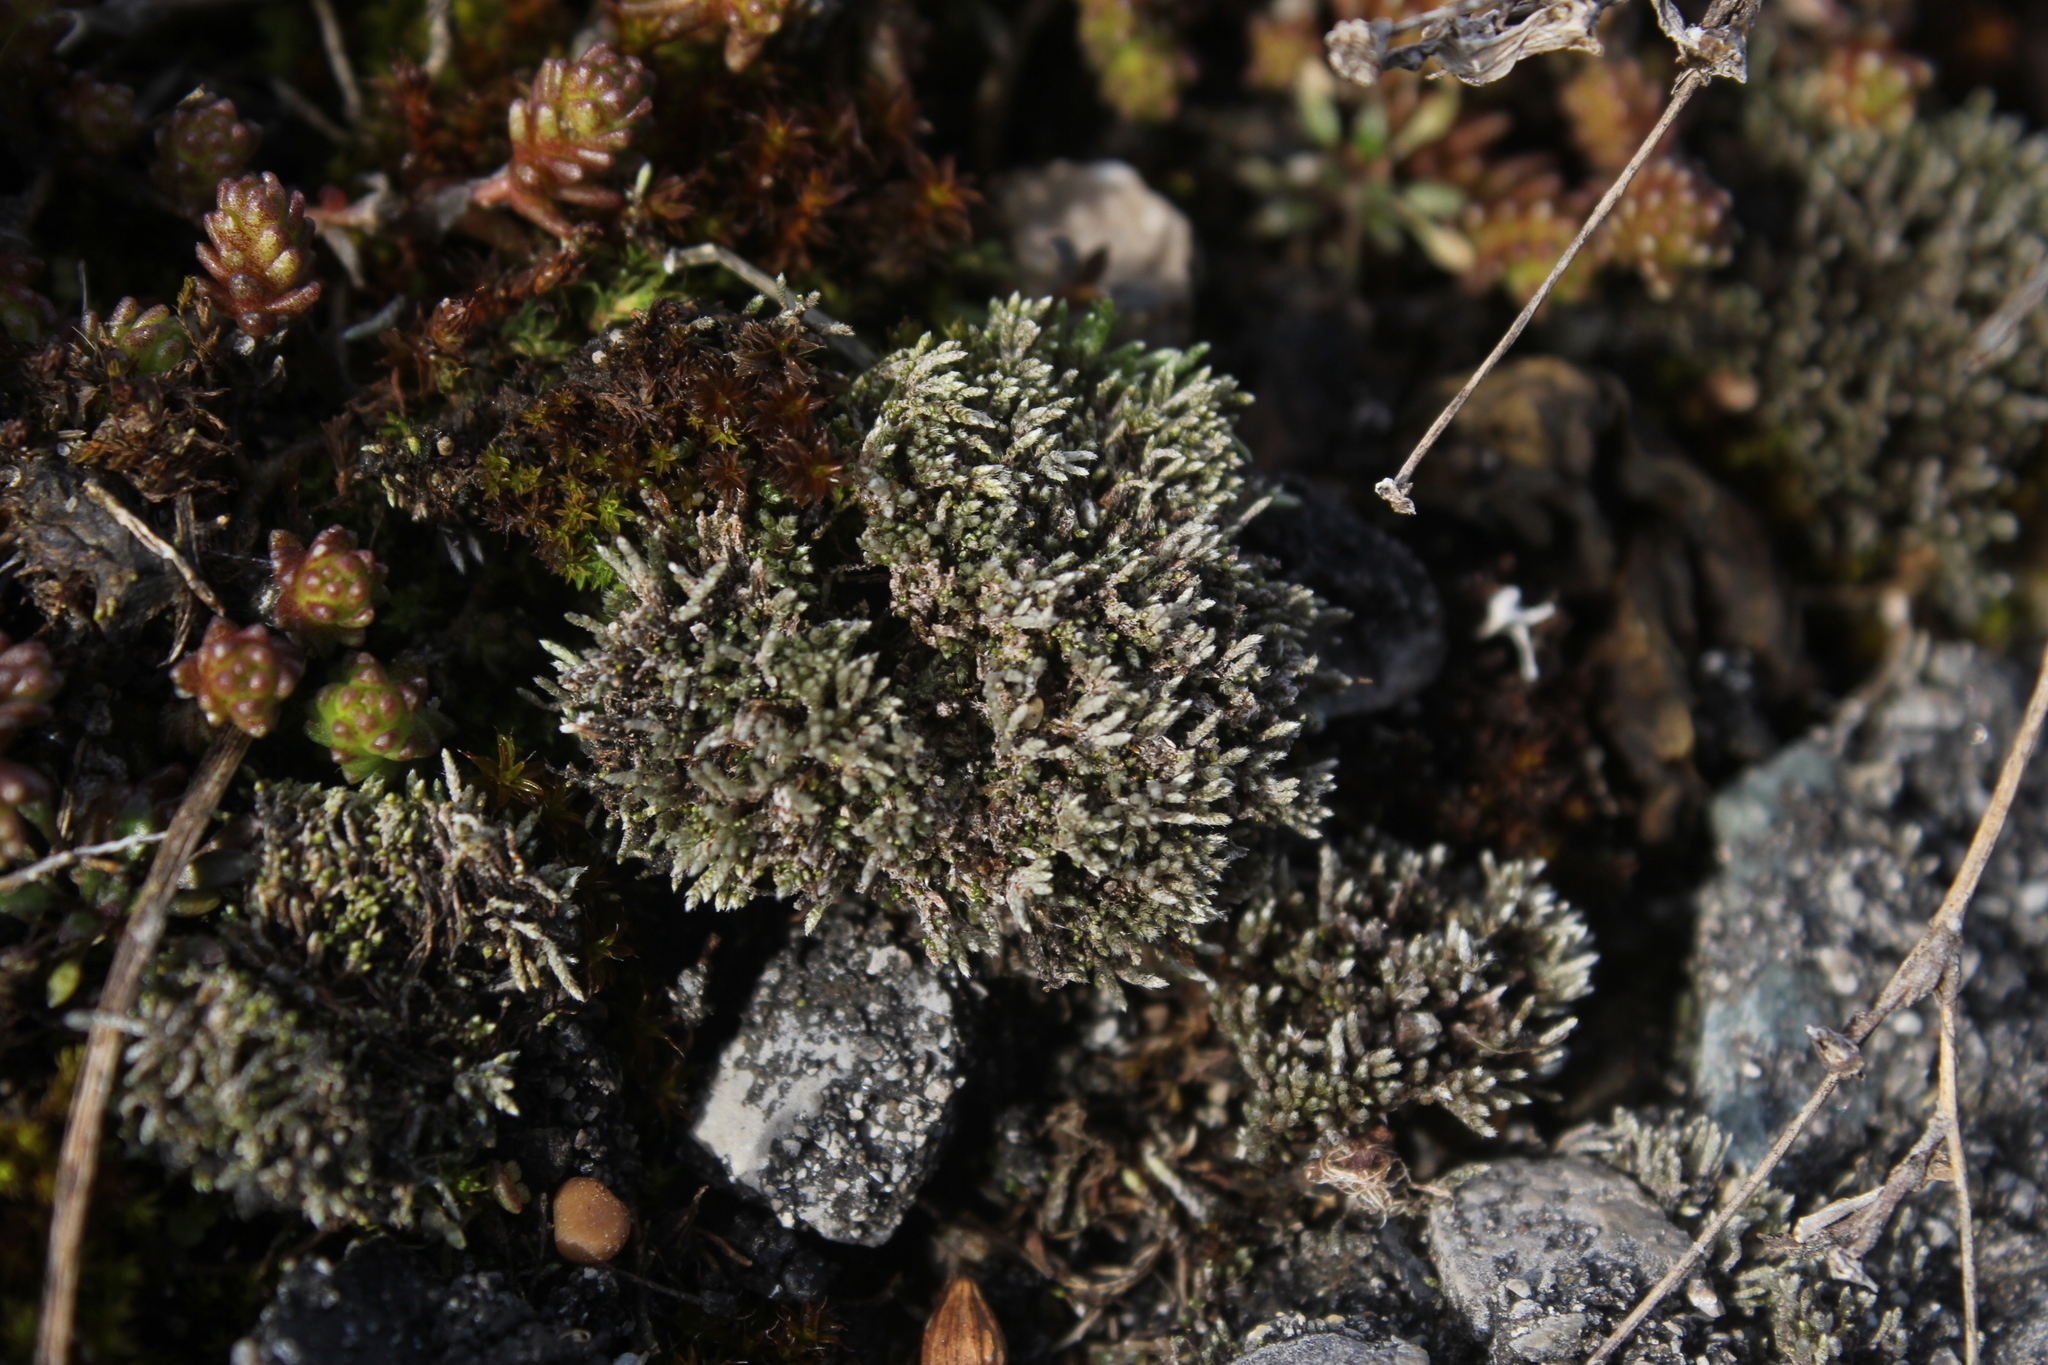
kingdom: Plantae
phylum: Bryophyta
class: Bryopsida
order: Bryales
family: Bryaceae
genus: Bryum
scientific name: Bryum argenteum
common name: Silver-moss
